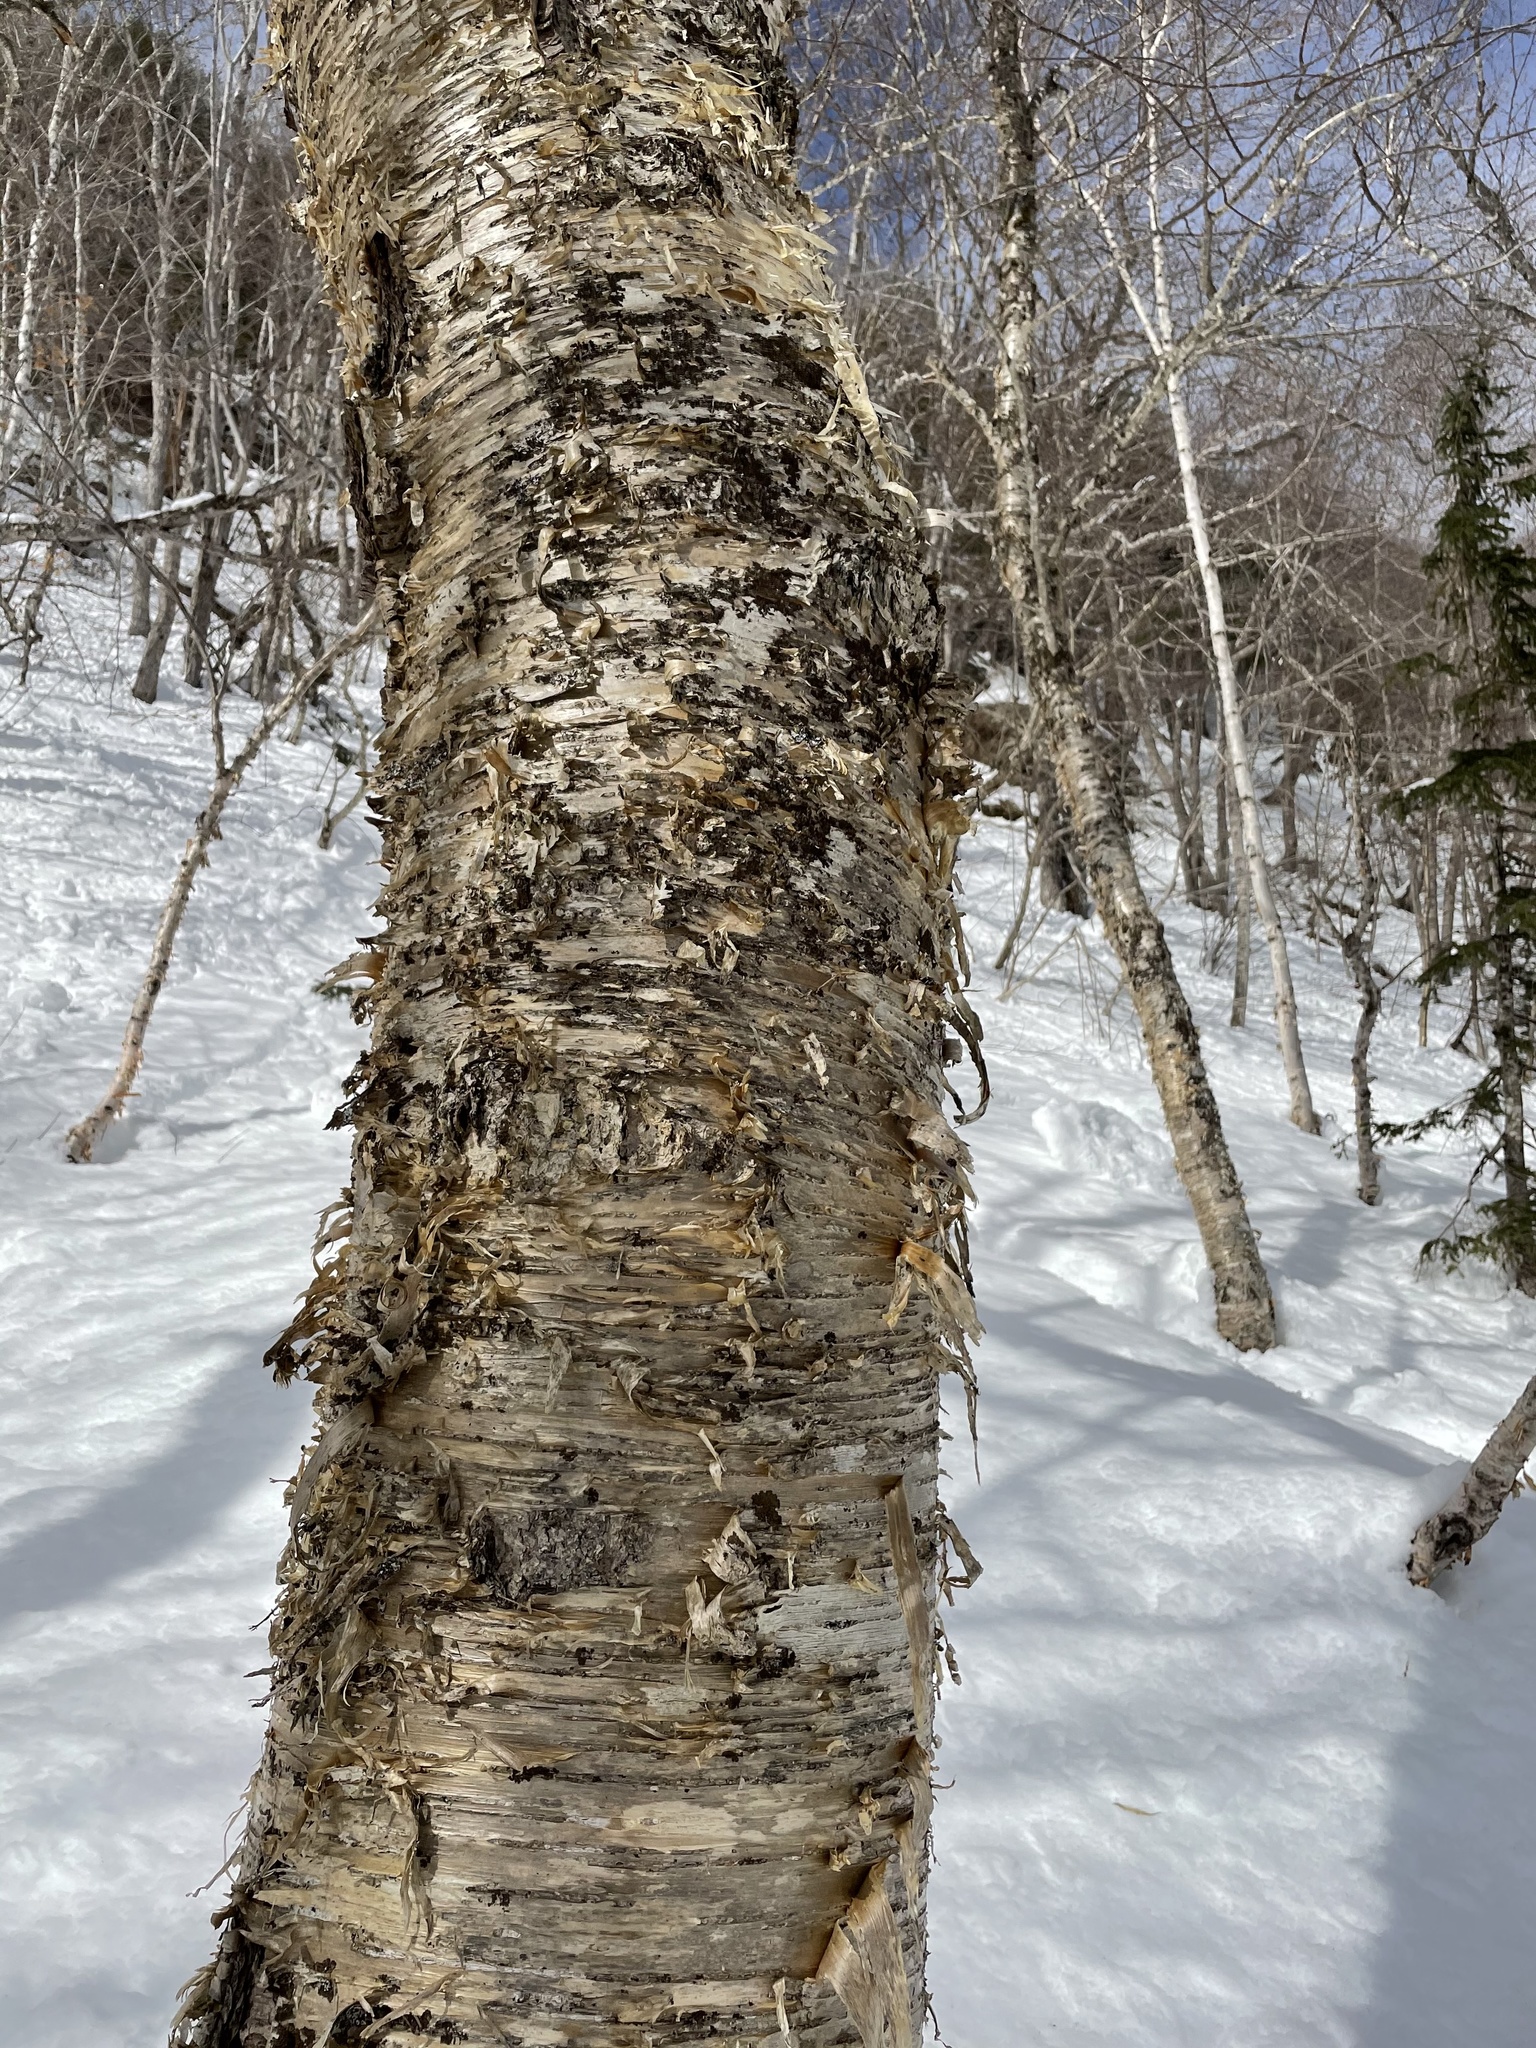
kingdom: Plantae
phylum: Tracheophyta
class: Magnoliopsida
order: Fagales
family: Betulaceae
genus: Betula
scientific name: Betula alleghaniensis
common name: Yellow birch
